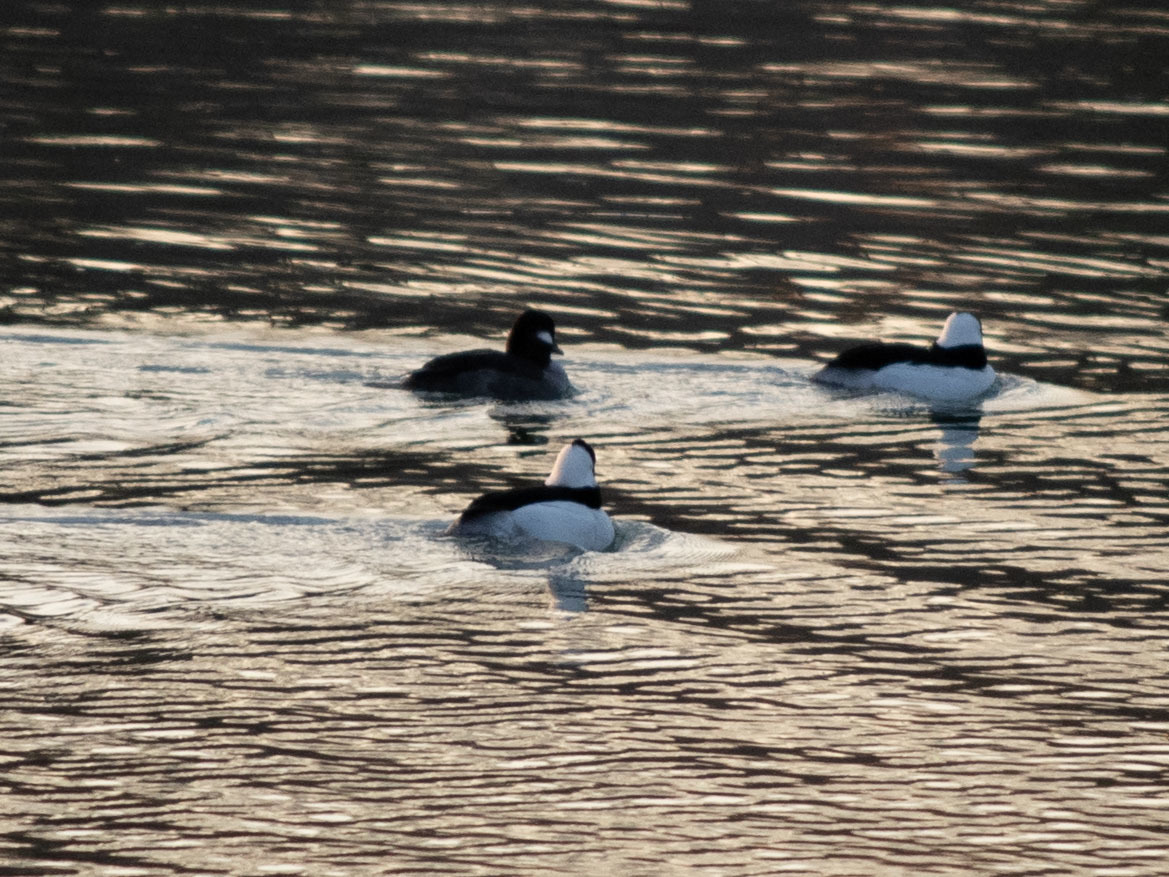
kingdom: Animalia
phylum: Chordata
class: Aves
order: Anseriformes
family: Anatidae
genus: Bucephala
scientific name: Bucephala albeola
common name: Bufflehead
